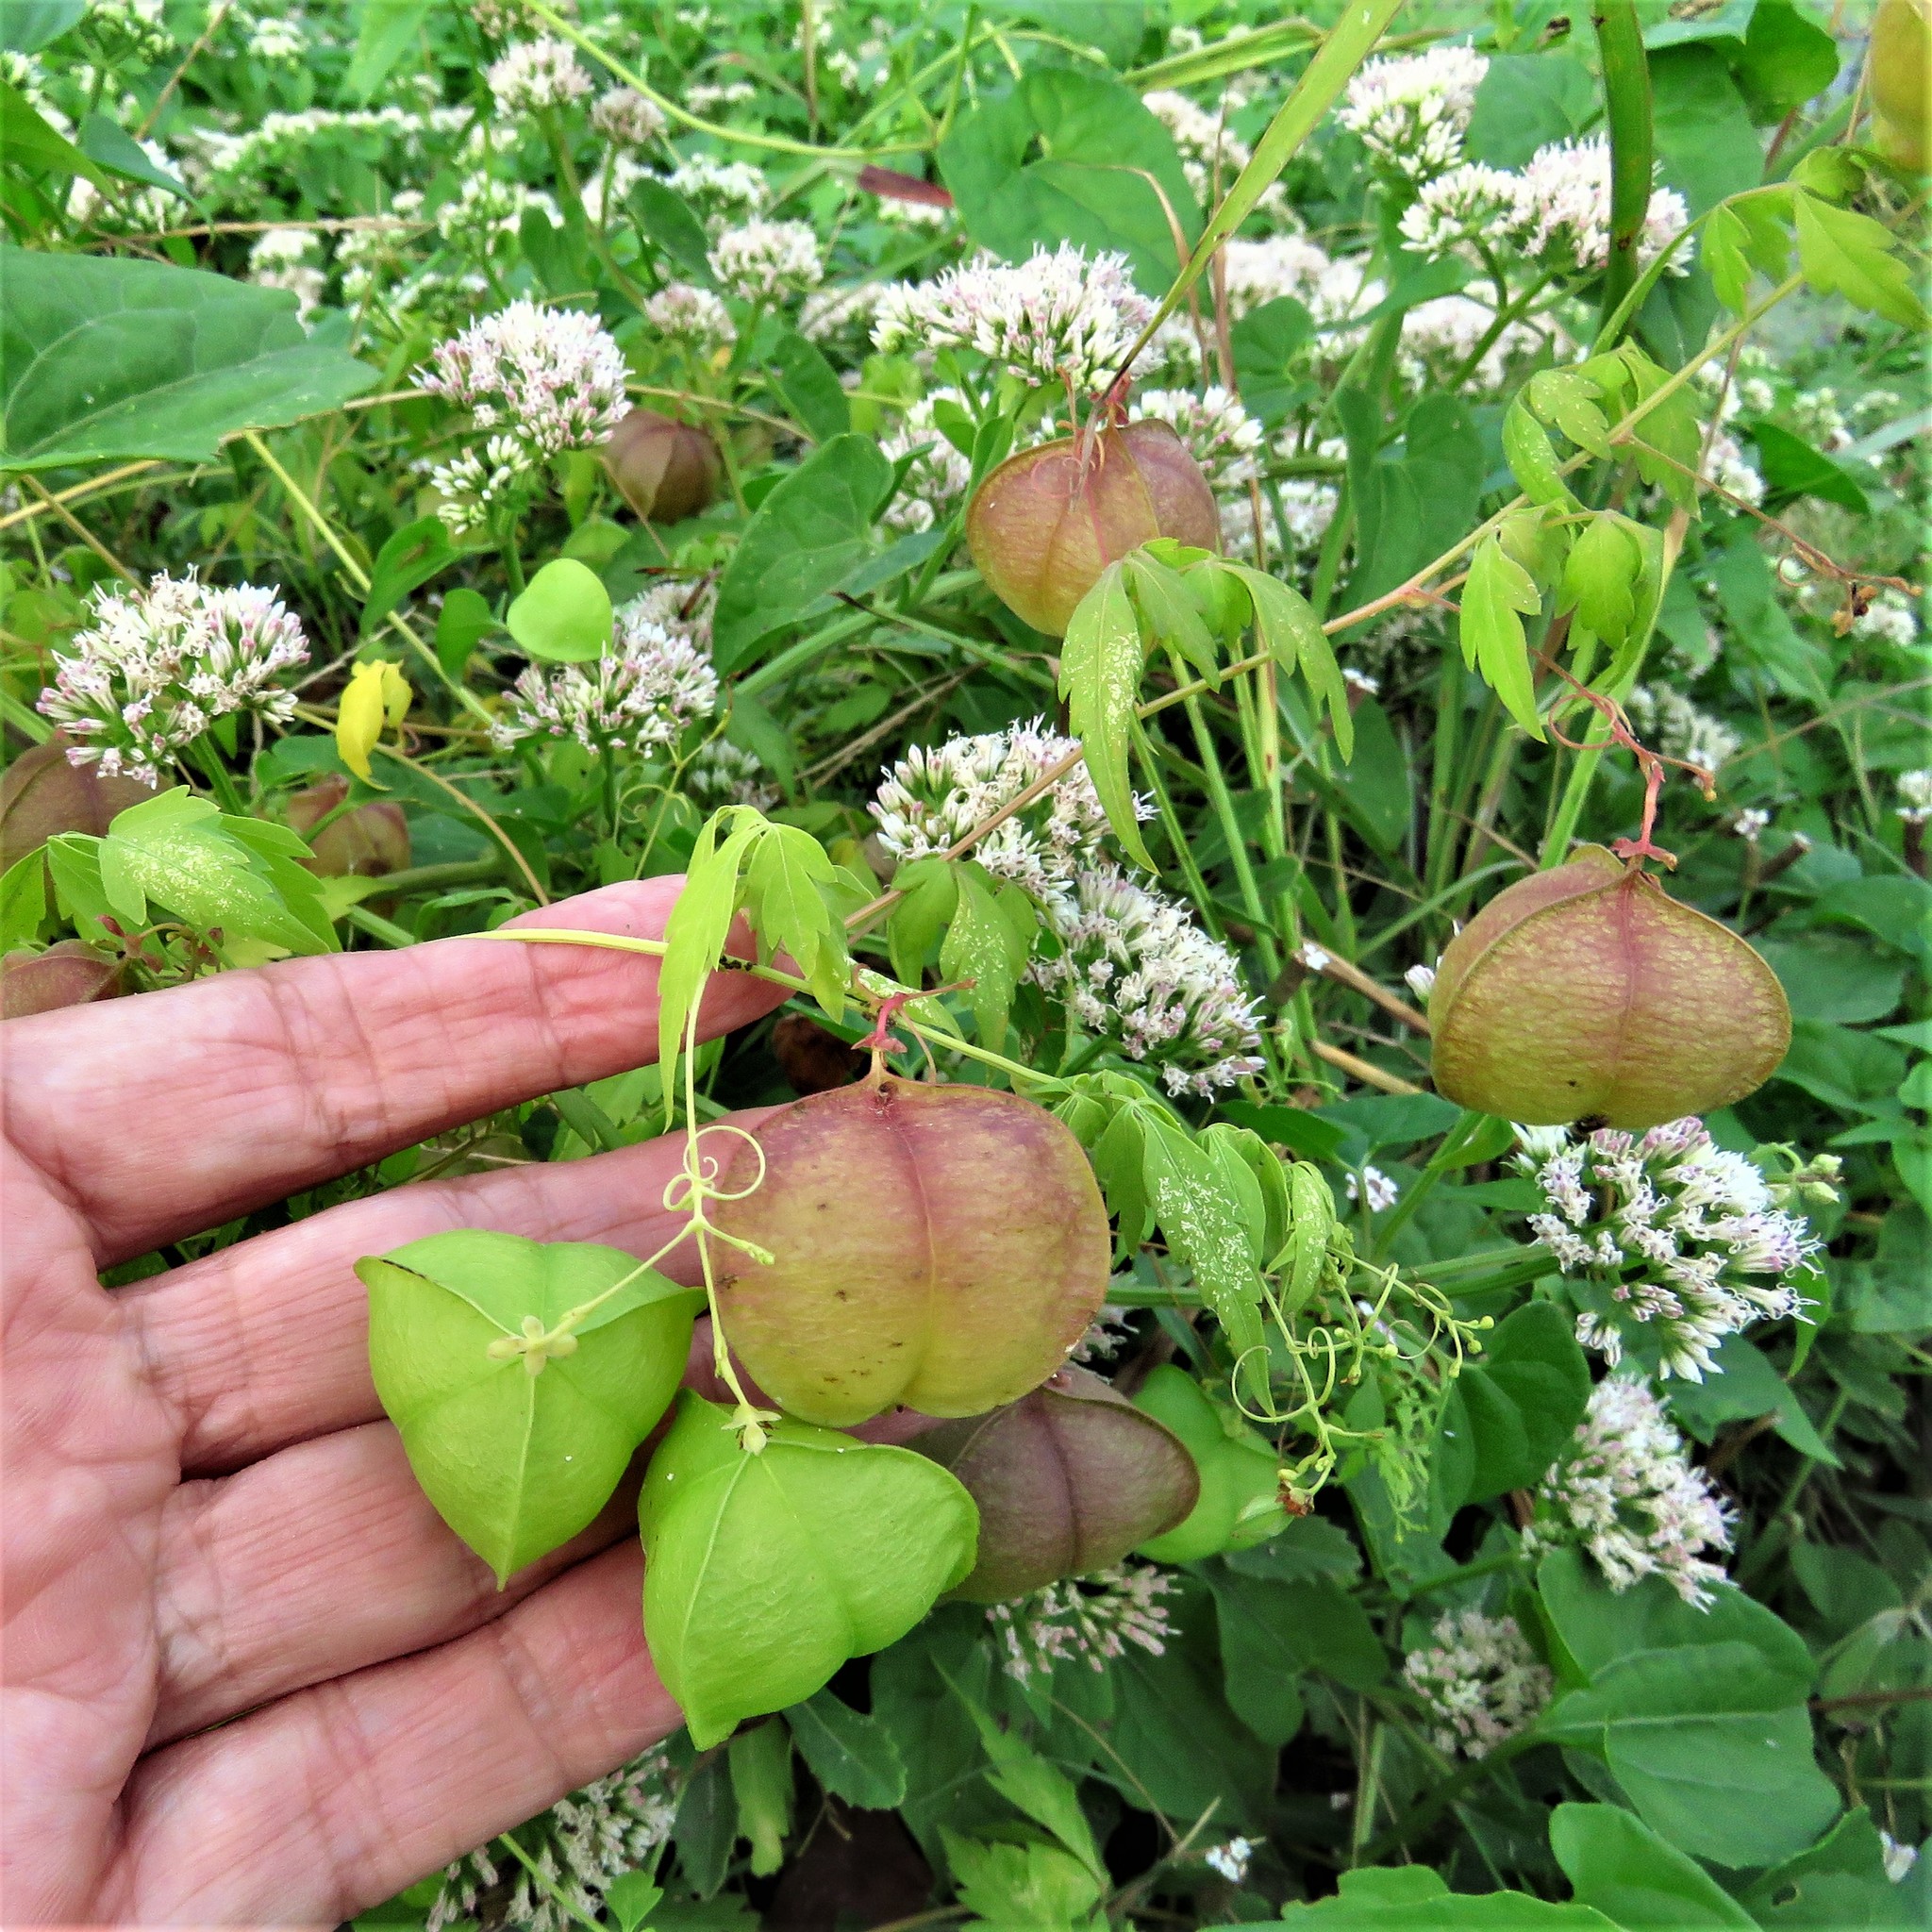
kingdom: Plantae
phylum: Tracheophyta
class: Magnoliopsida
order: Sapindales
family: Sapindaceae
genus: Cardiospermum
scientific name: Cardiospermum halicacabum
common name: Balloon vine
